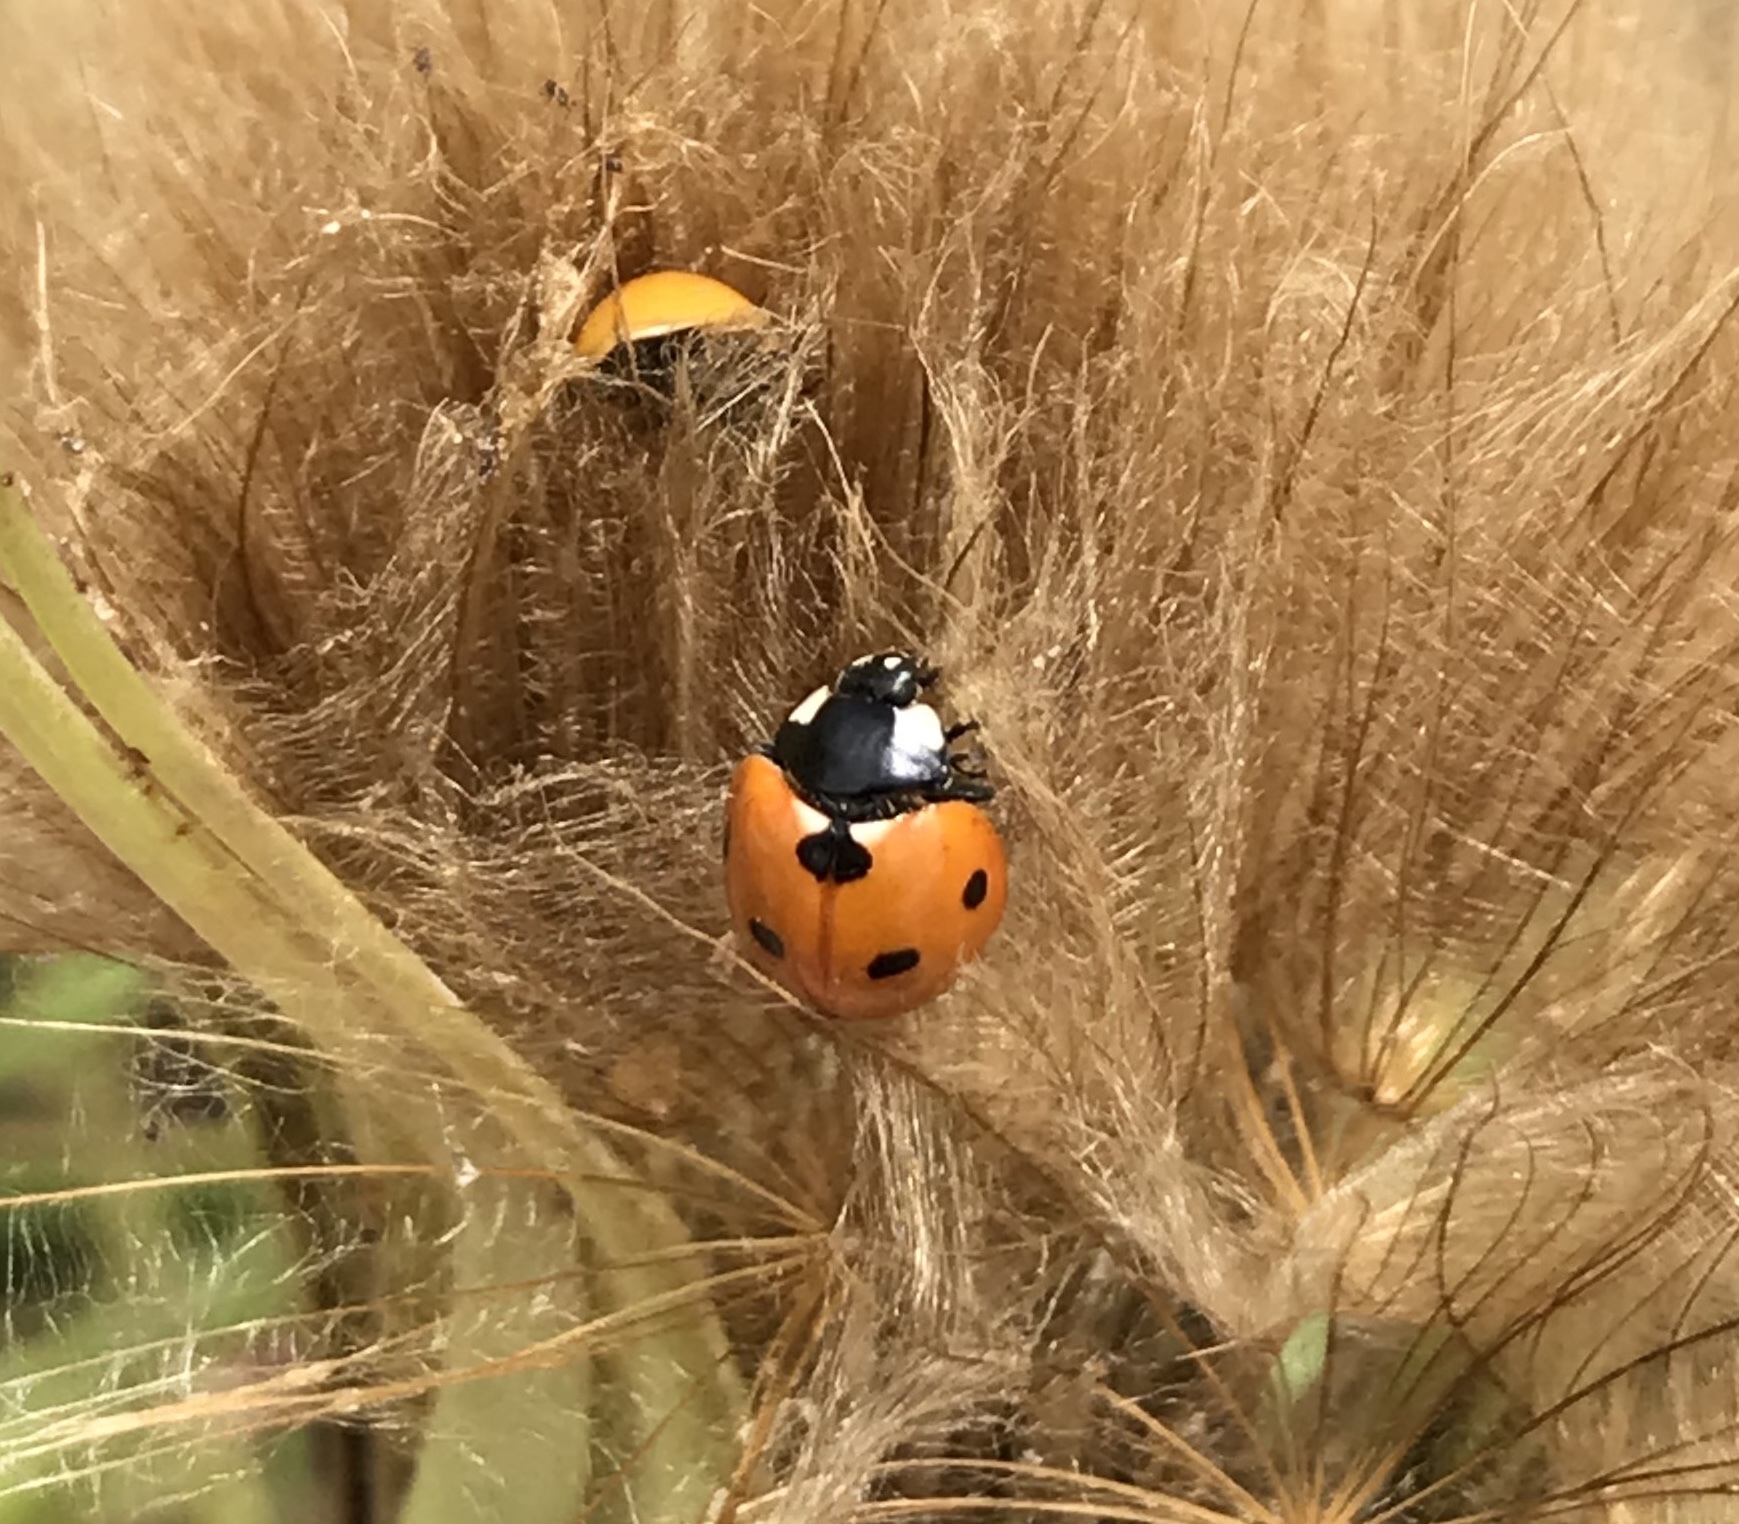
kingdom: Animalia
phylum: Arthropoda
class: Insecta
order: Coleoptera
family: Coccinellidae
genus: Coccinella
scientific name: Coccinella septempunctata
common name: Sevenspotted lady beetle
